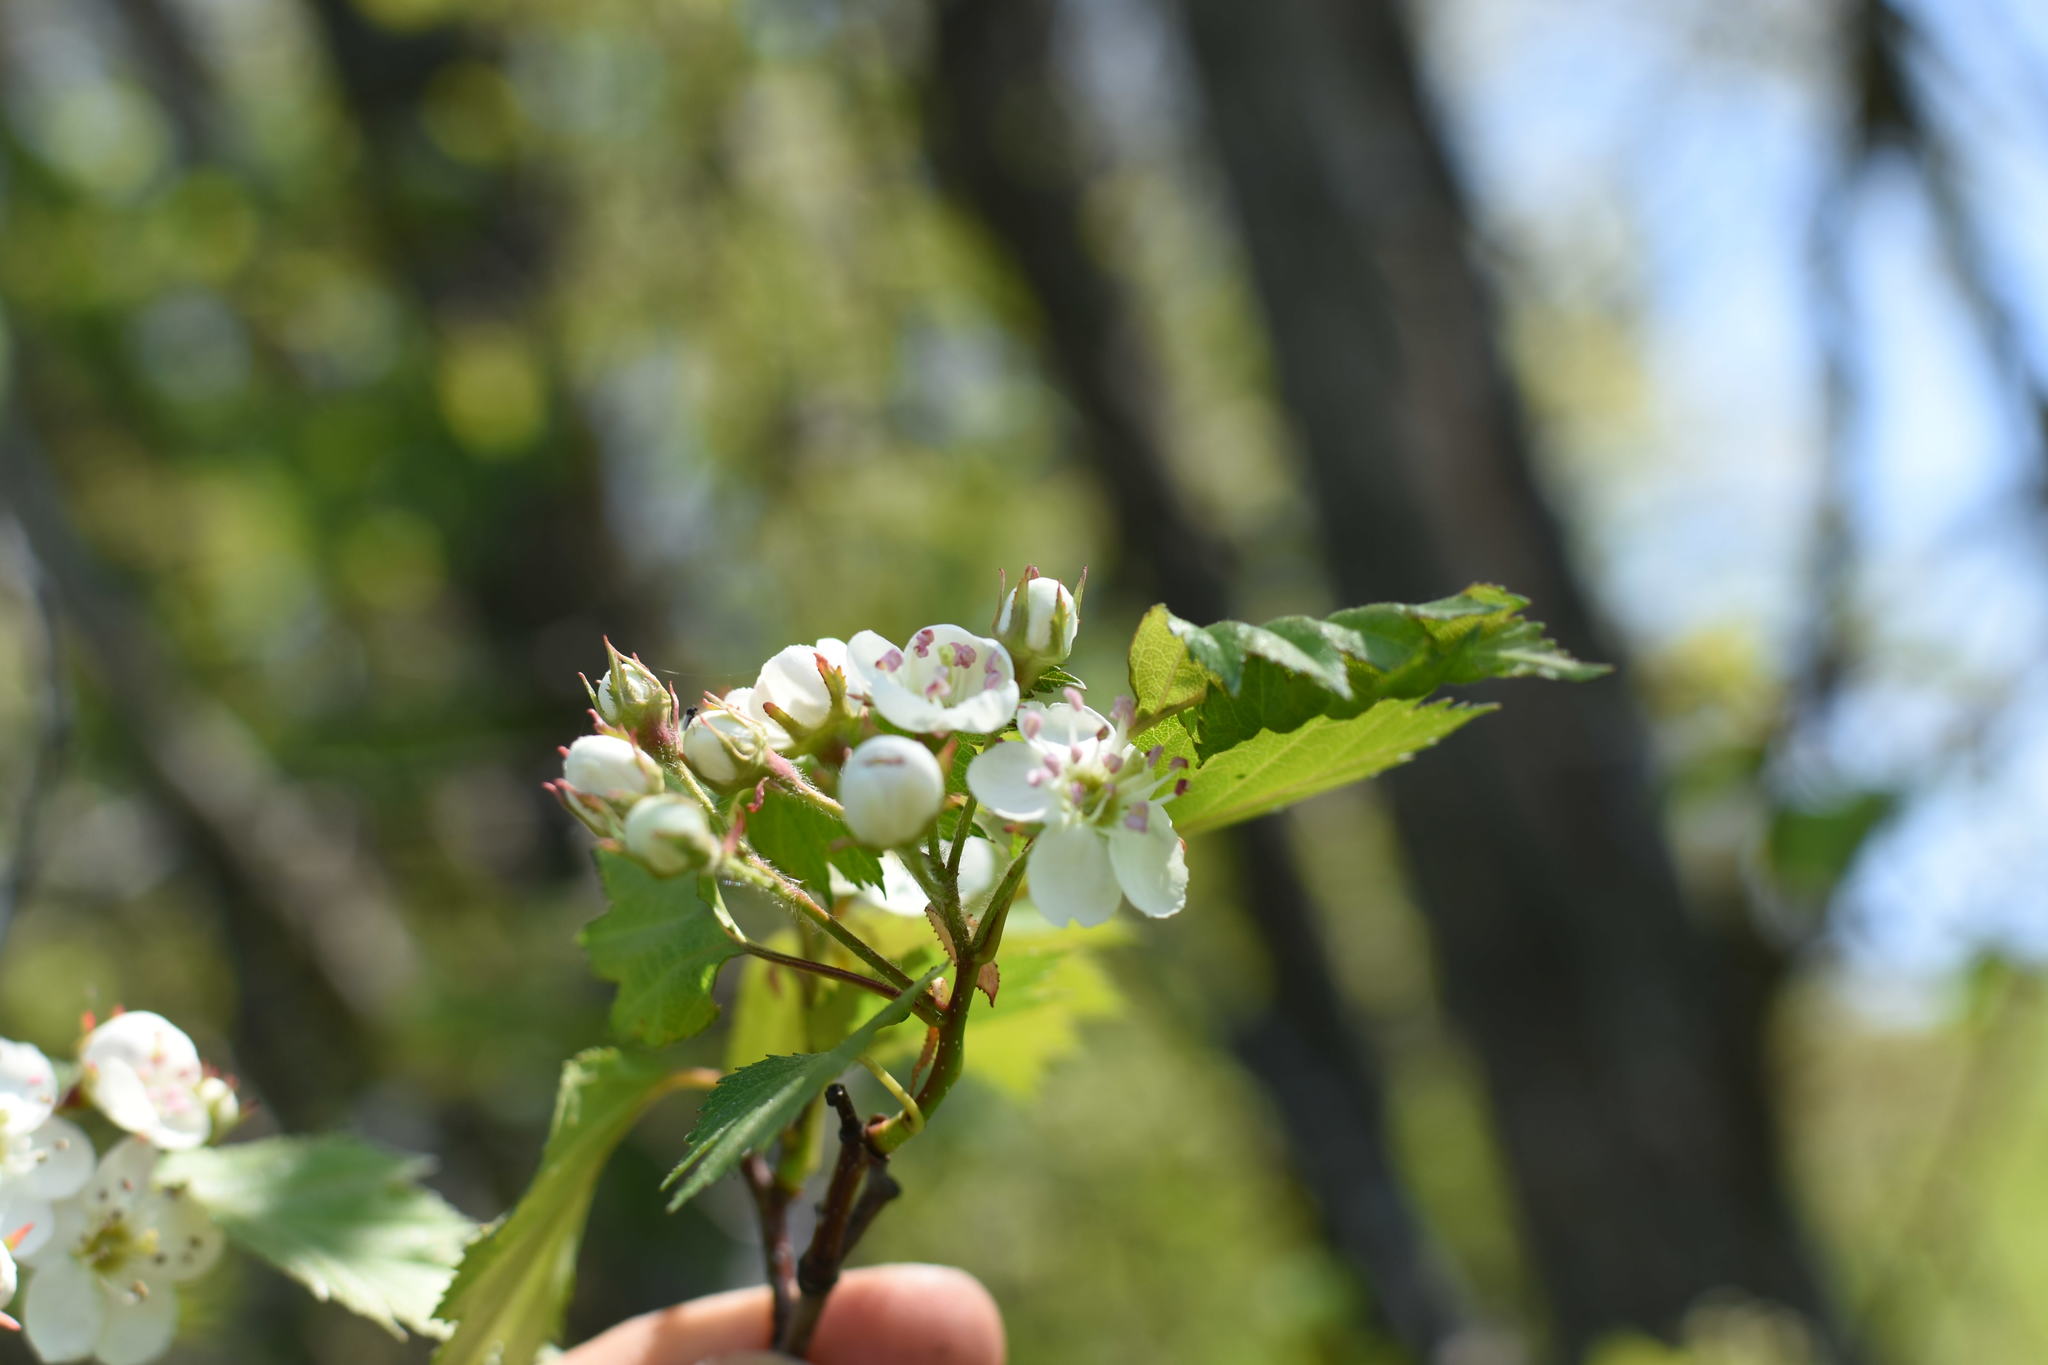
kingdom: Plantae
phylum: Tracheophyta
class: Magnoliopsida
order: Rosales
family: Rosaceae
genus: Crataegus
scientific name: Crataegus flabellata
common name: Bosc's hawthorn
